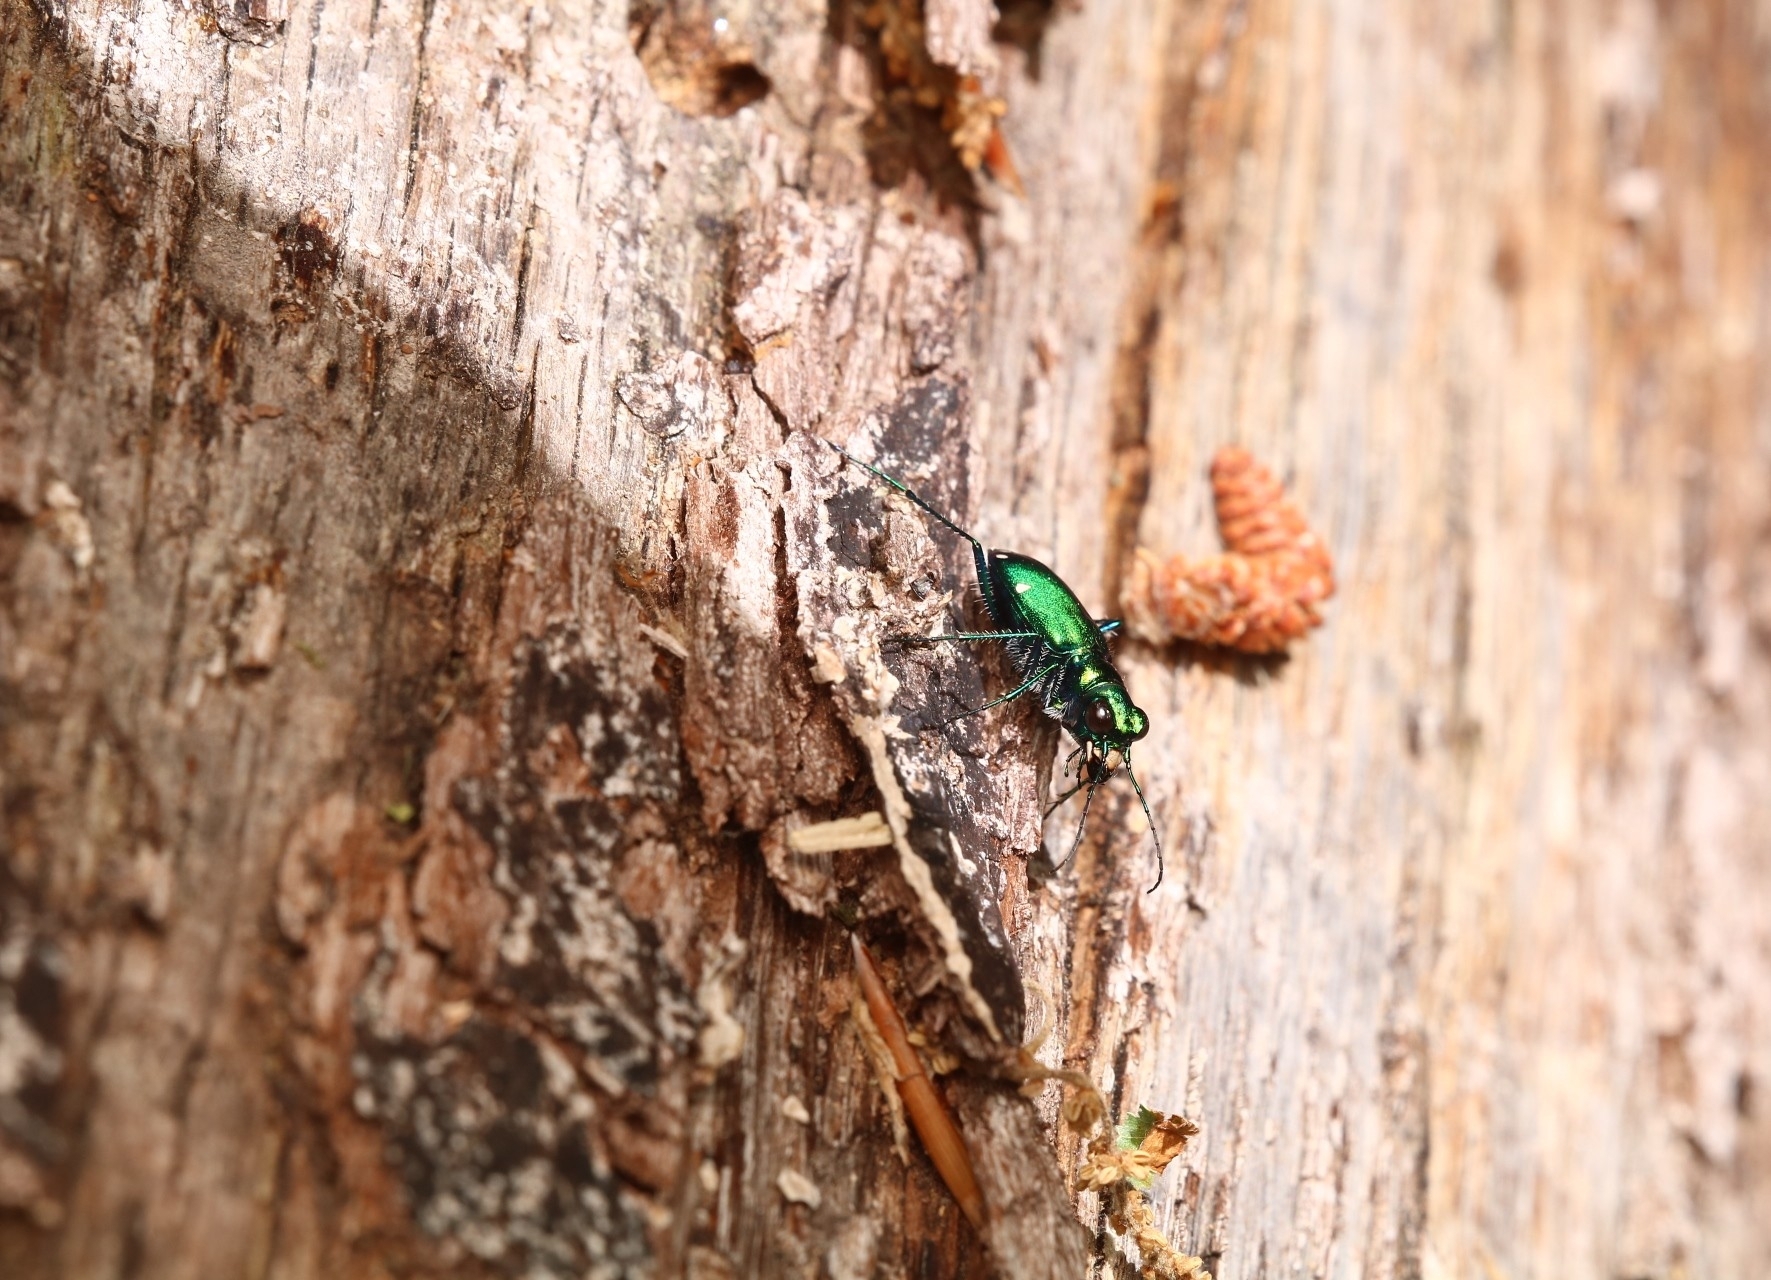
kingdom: Animalia
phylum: Arthropoda
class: Insecta
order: Coleoptera
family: Carabidae
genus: Cicindela
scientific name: Cicindela sexguttata
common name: Six-spotted tiger beetle
